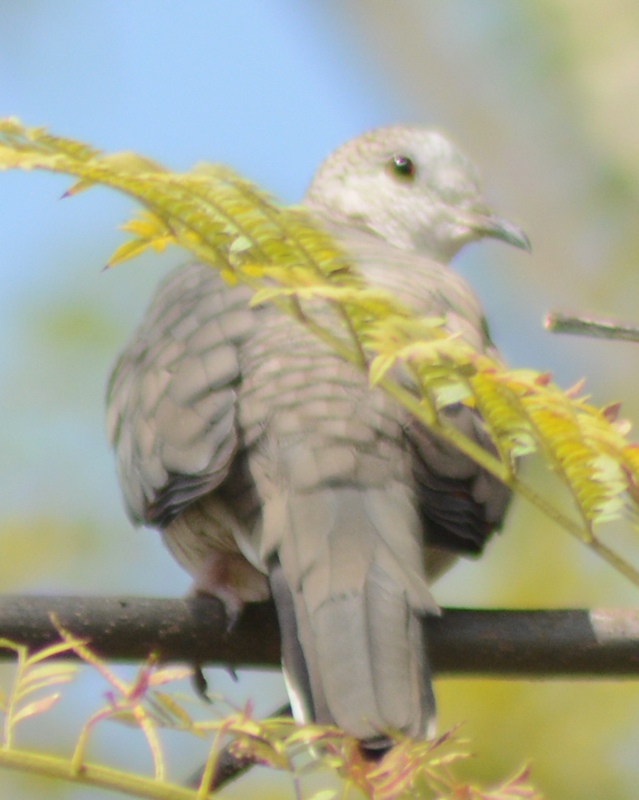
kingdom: Animalia
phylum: Chordata
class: Aves
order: Columbiformes
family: Columbidae
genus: Columbina
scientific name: Columbina inca
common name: Inca dove
